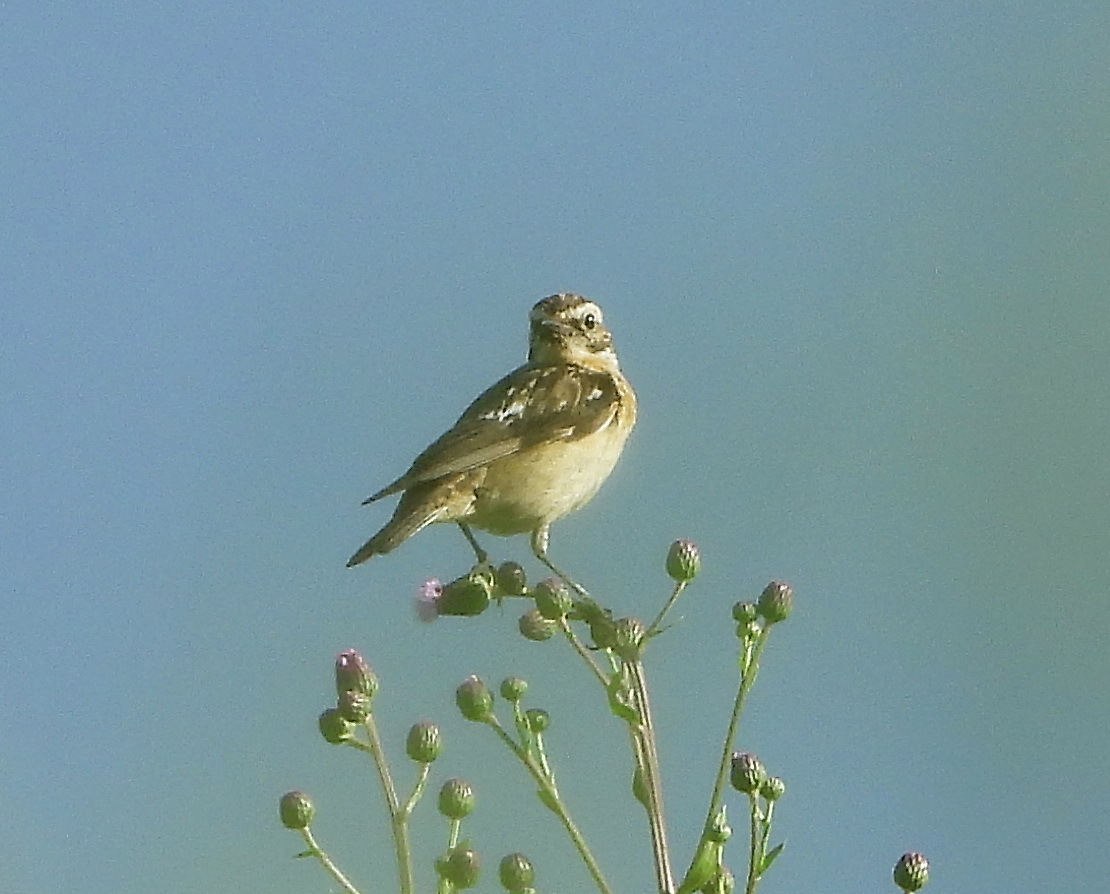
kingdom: Animalia
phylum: Chordata
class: Aves
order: Passeriformes
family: Muscicapidae
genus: Saxicola
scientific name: Saxicola rubetra
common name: Whinchat
